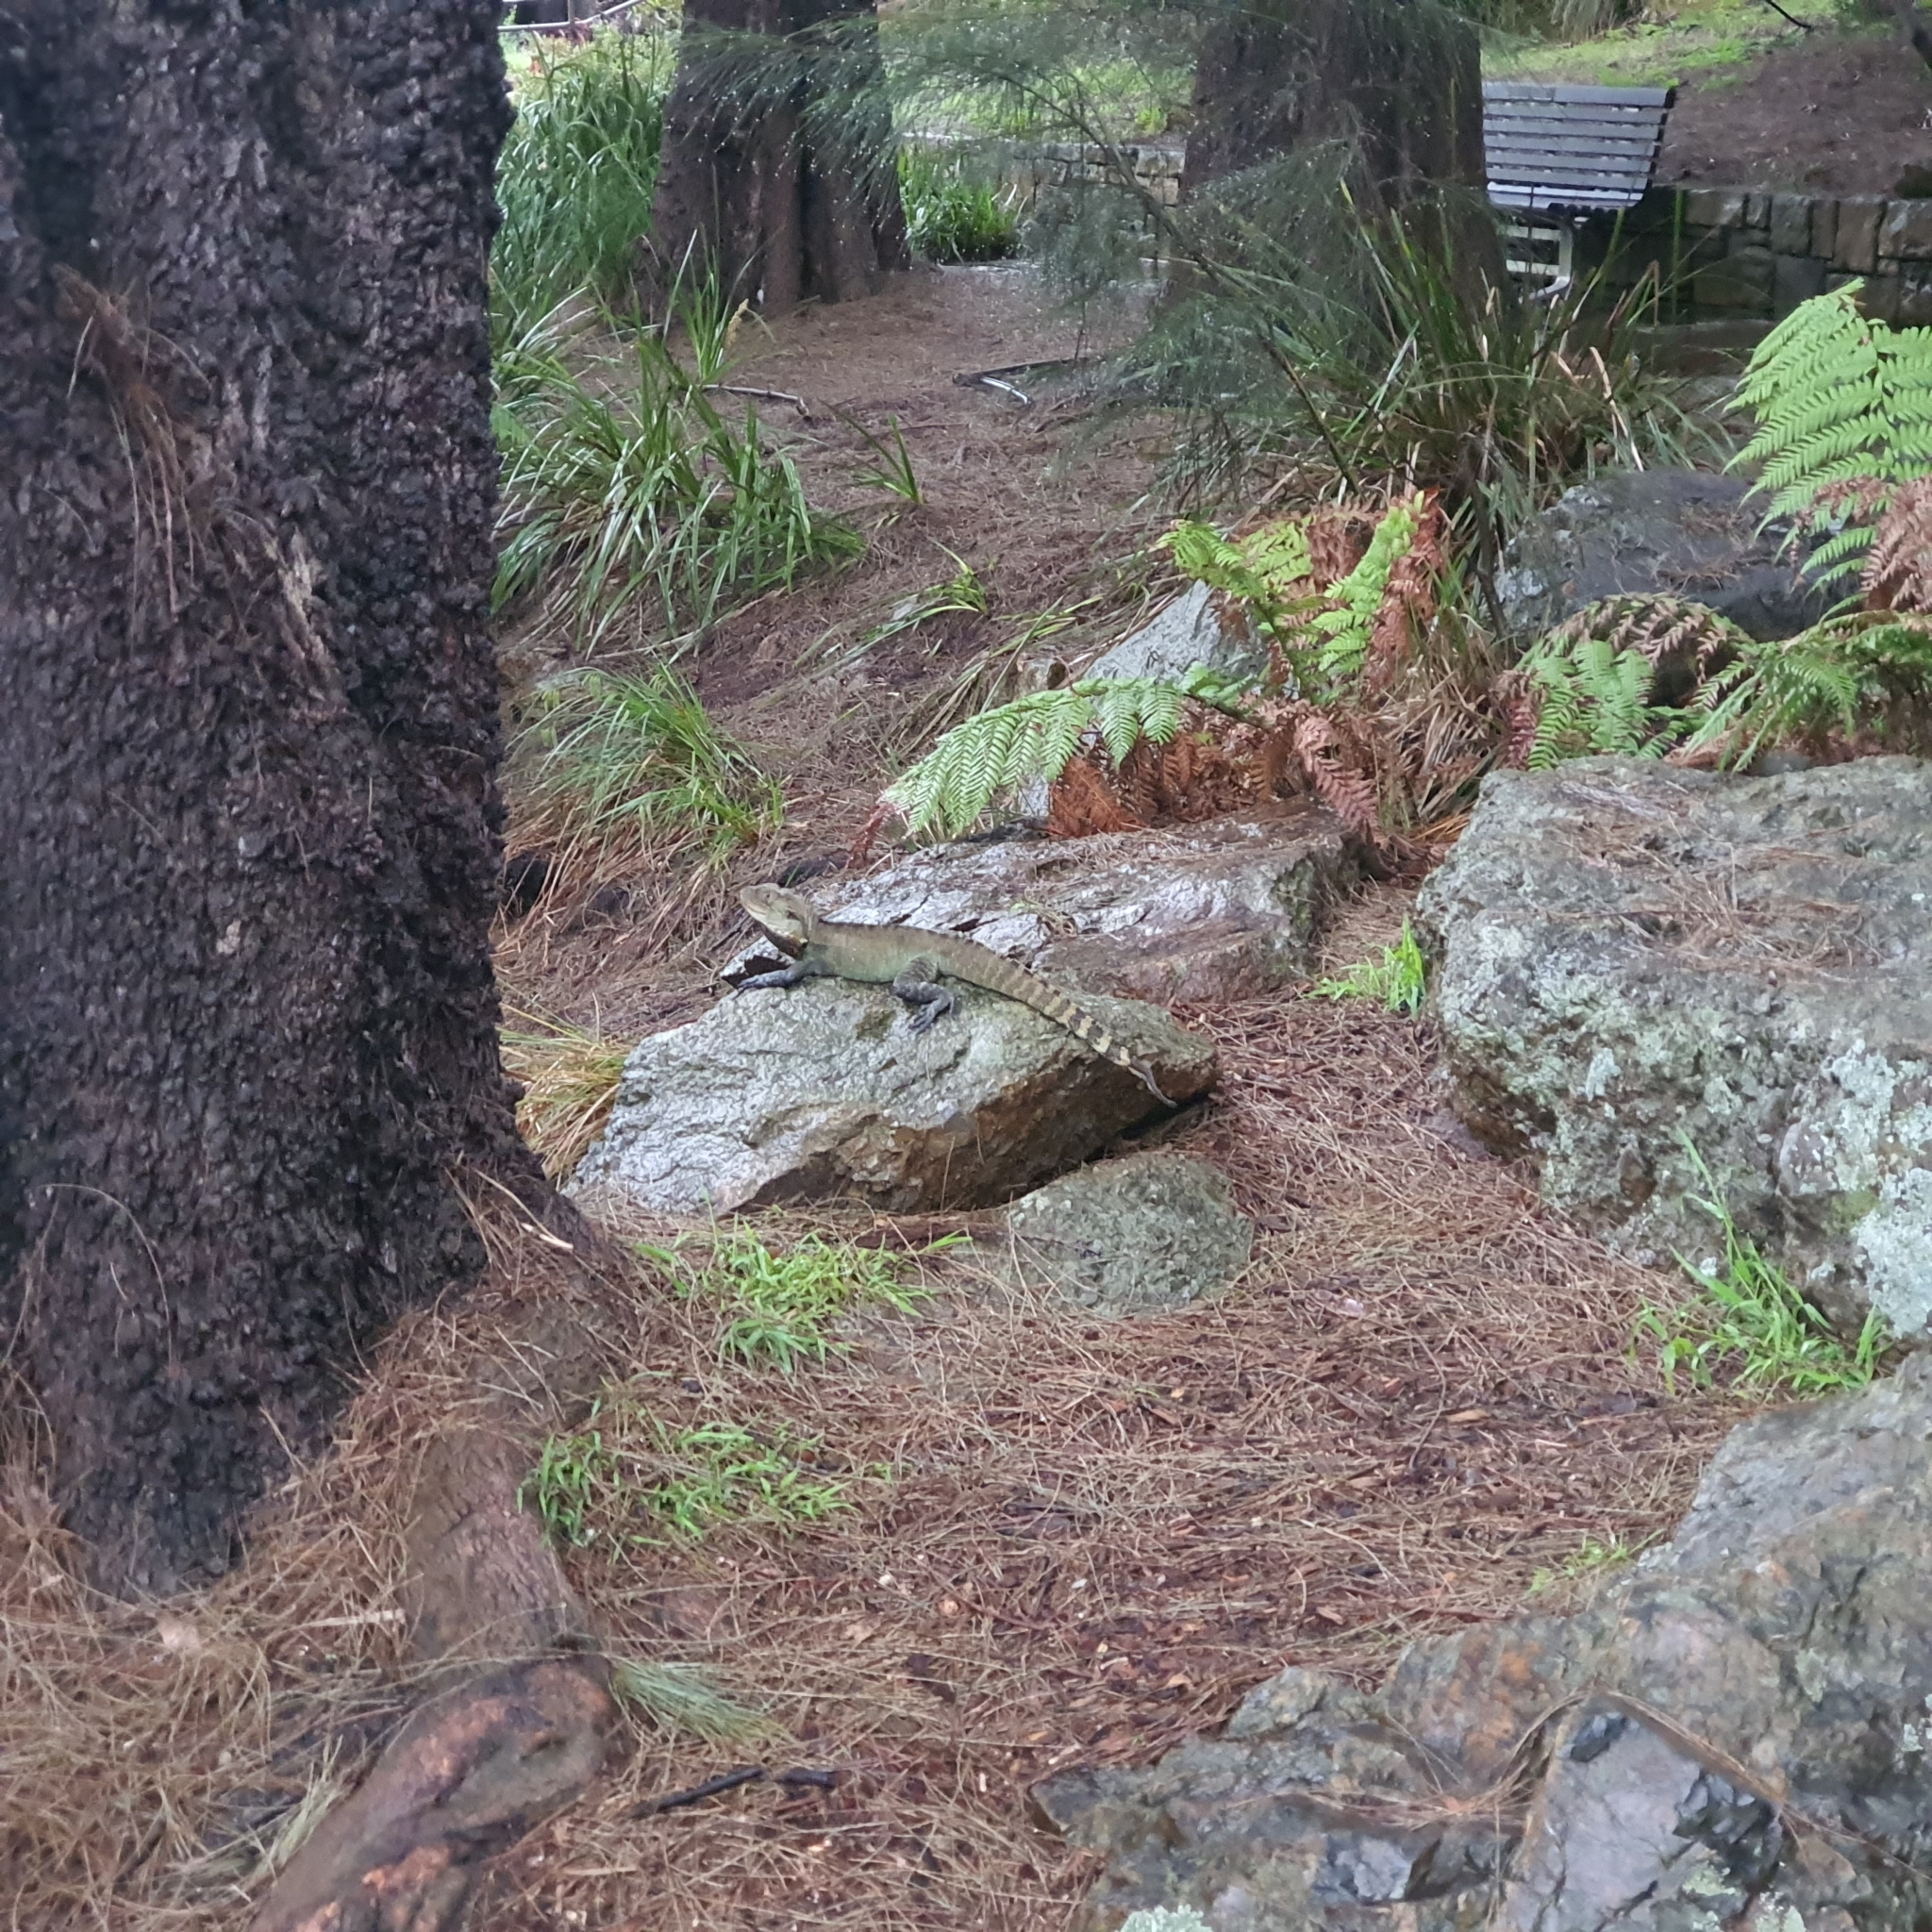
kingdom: Animalia
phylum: Chordata
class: Squamata
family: Agamidae
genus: Intellagama
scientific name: Intellagama lesueurii
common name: Eastern water dragon
